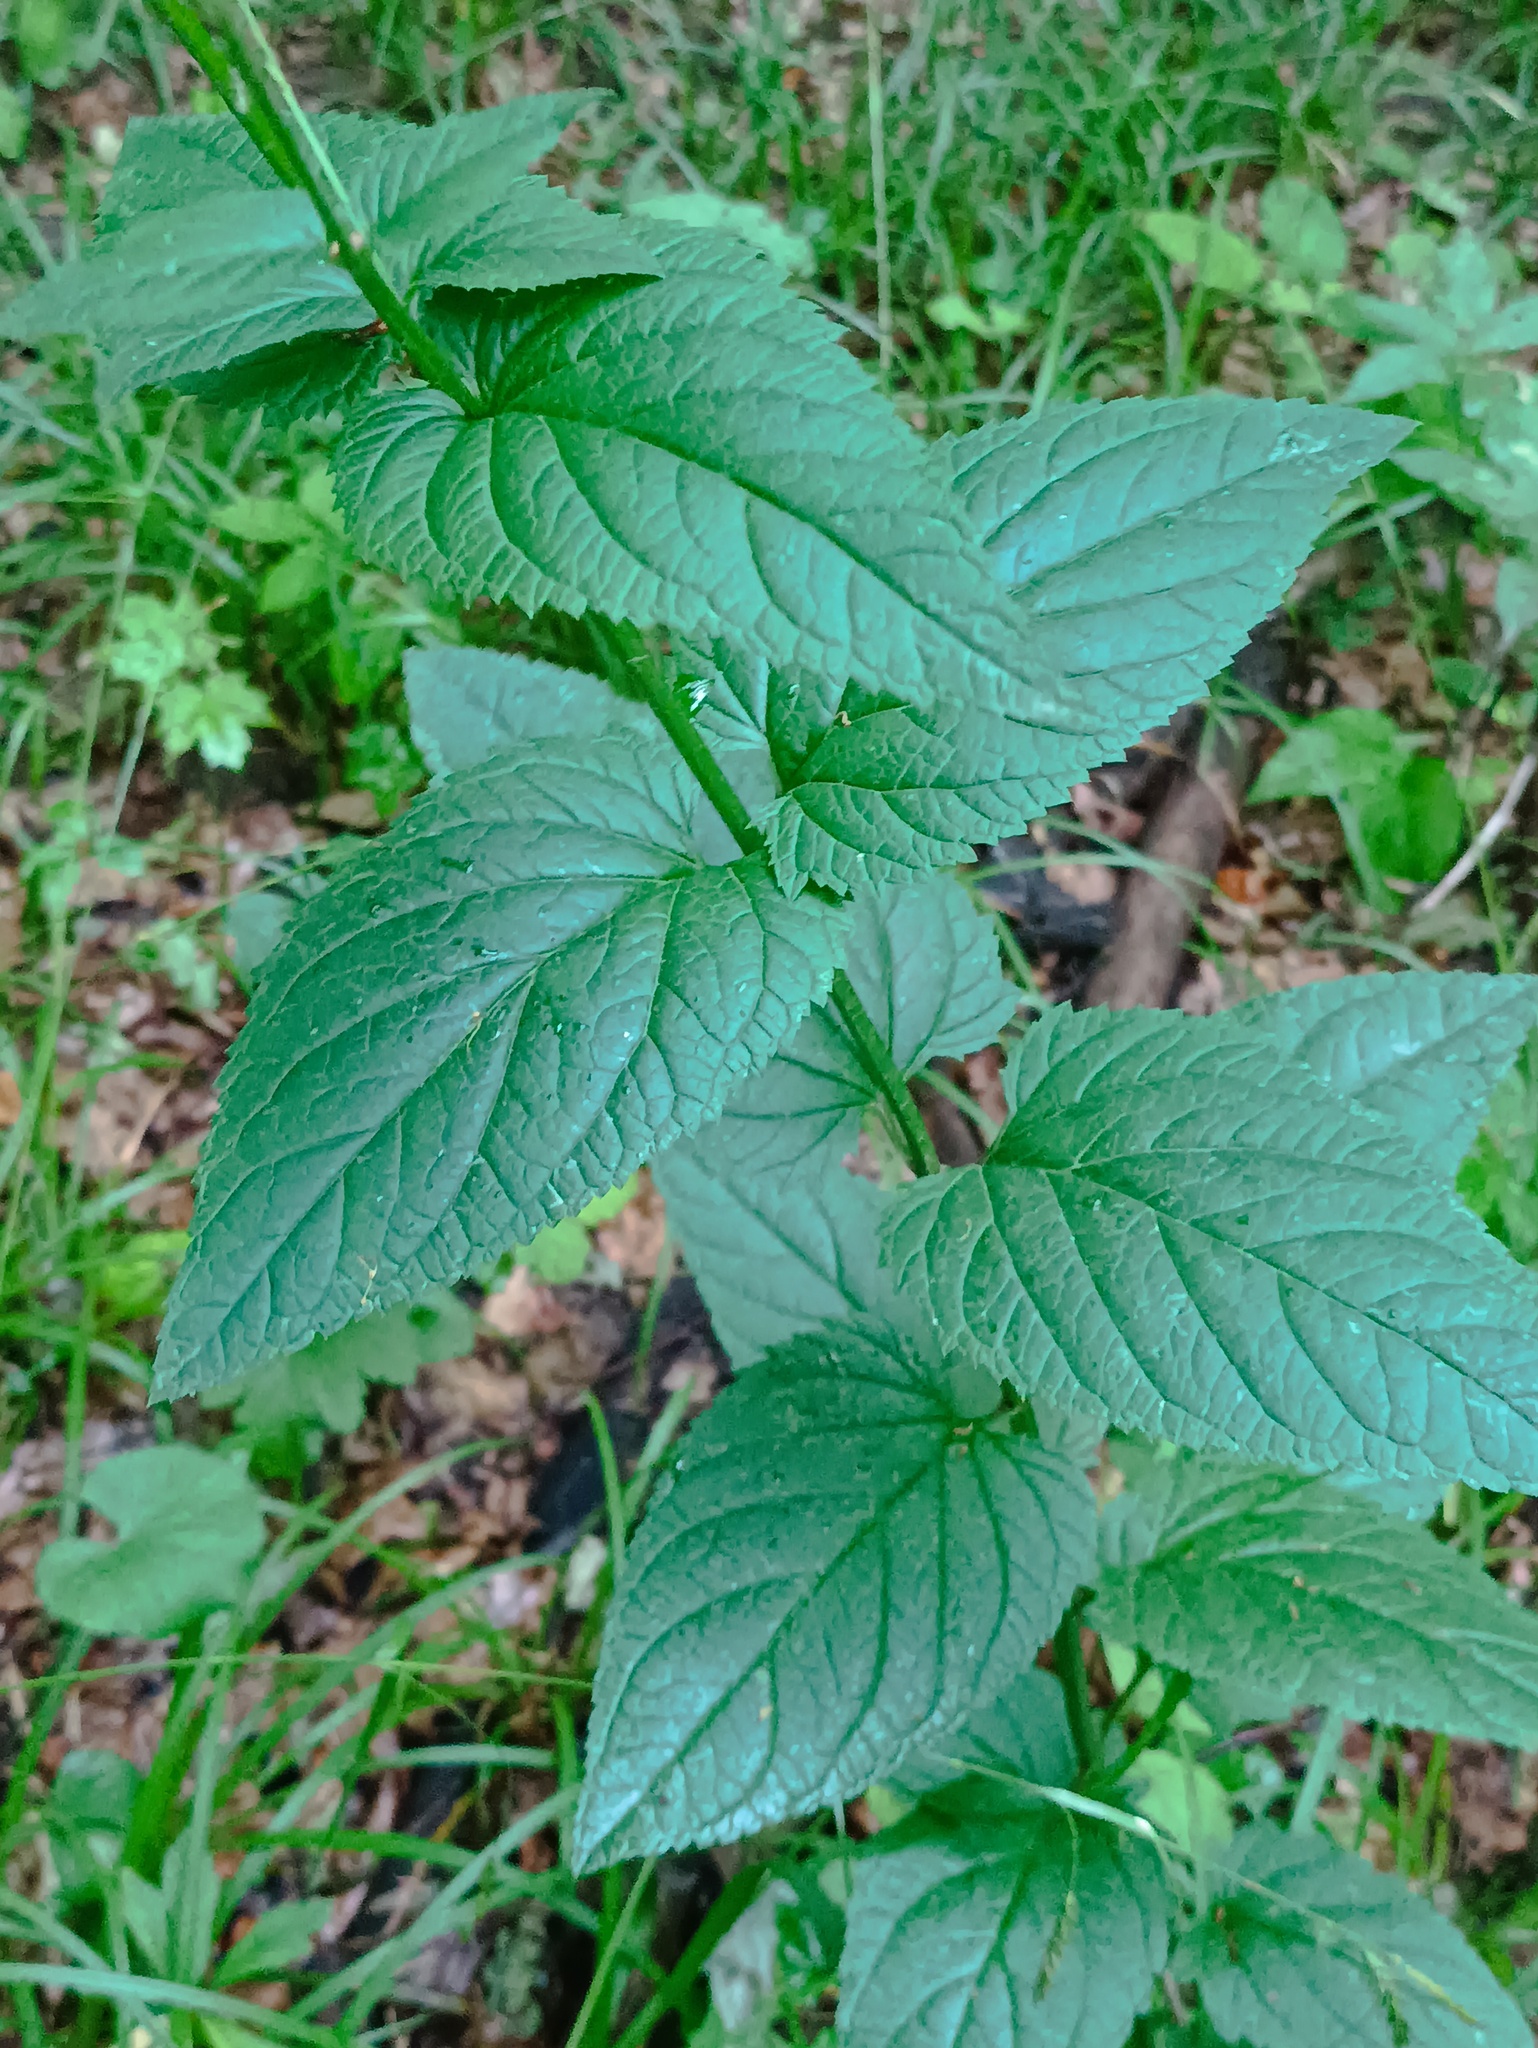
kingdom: Plantae
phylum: Tracheophyta
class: Magnoliopsida
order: Lamiales
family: Scrophulariaceae
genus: Scrophularia
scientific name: Scrophularia nodosa
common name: Common figwort
